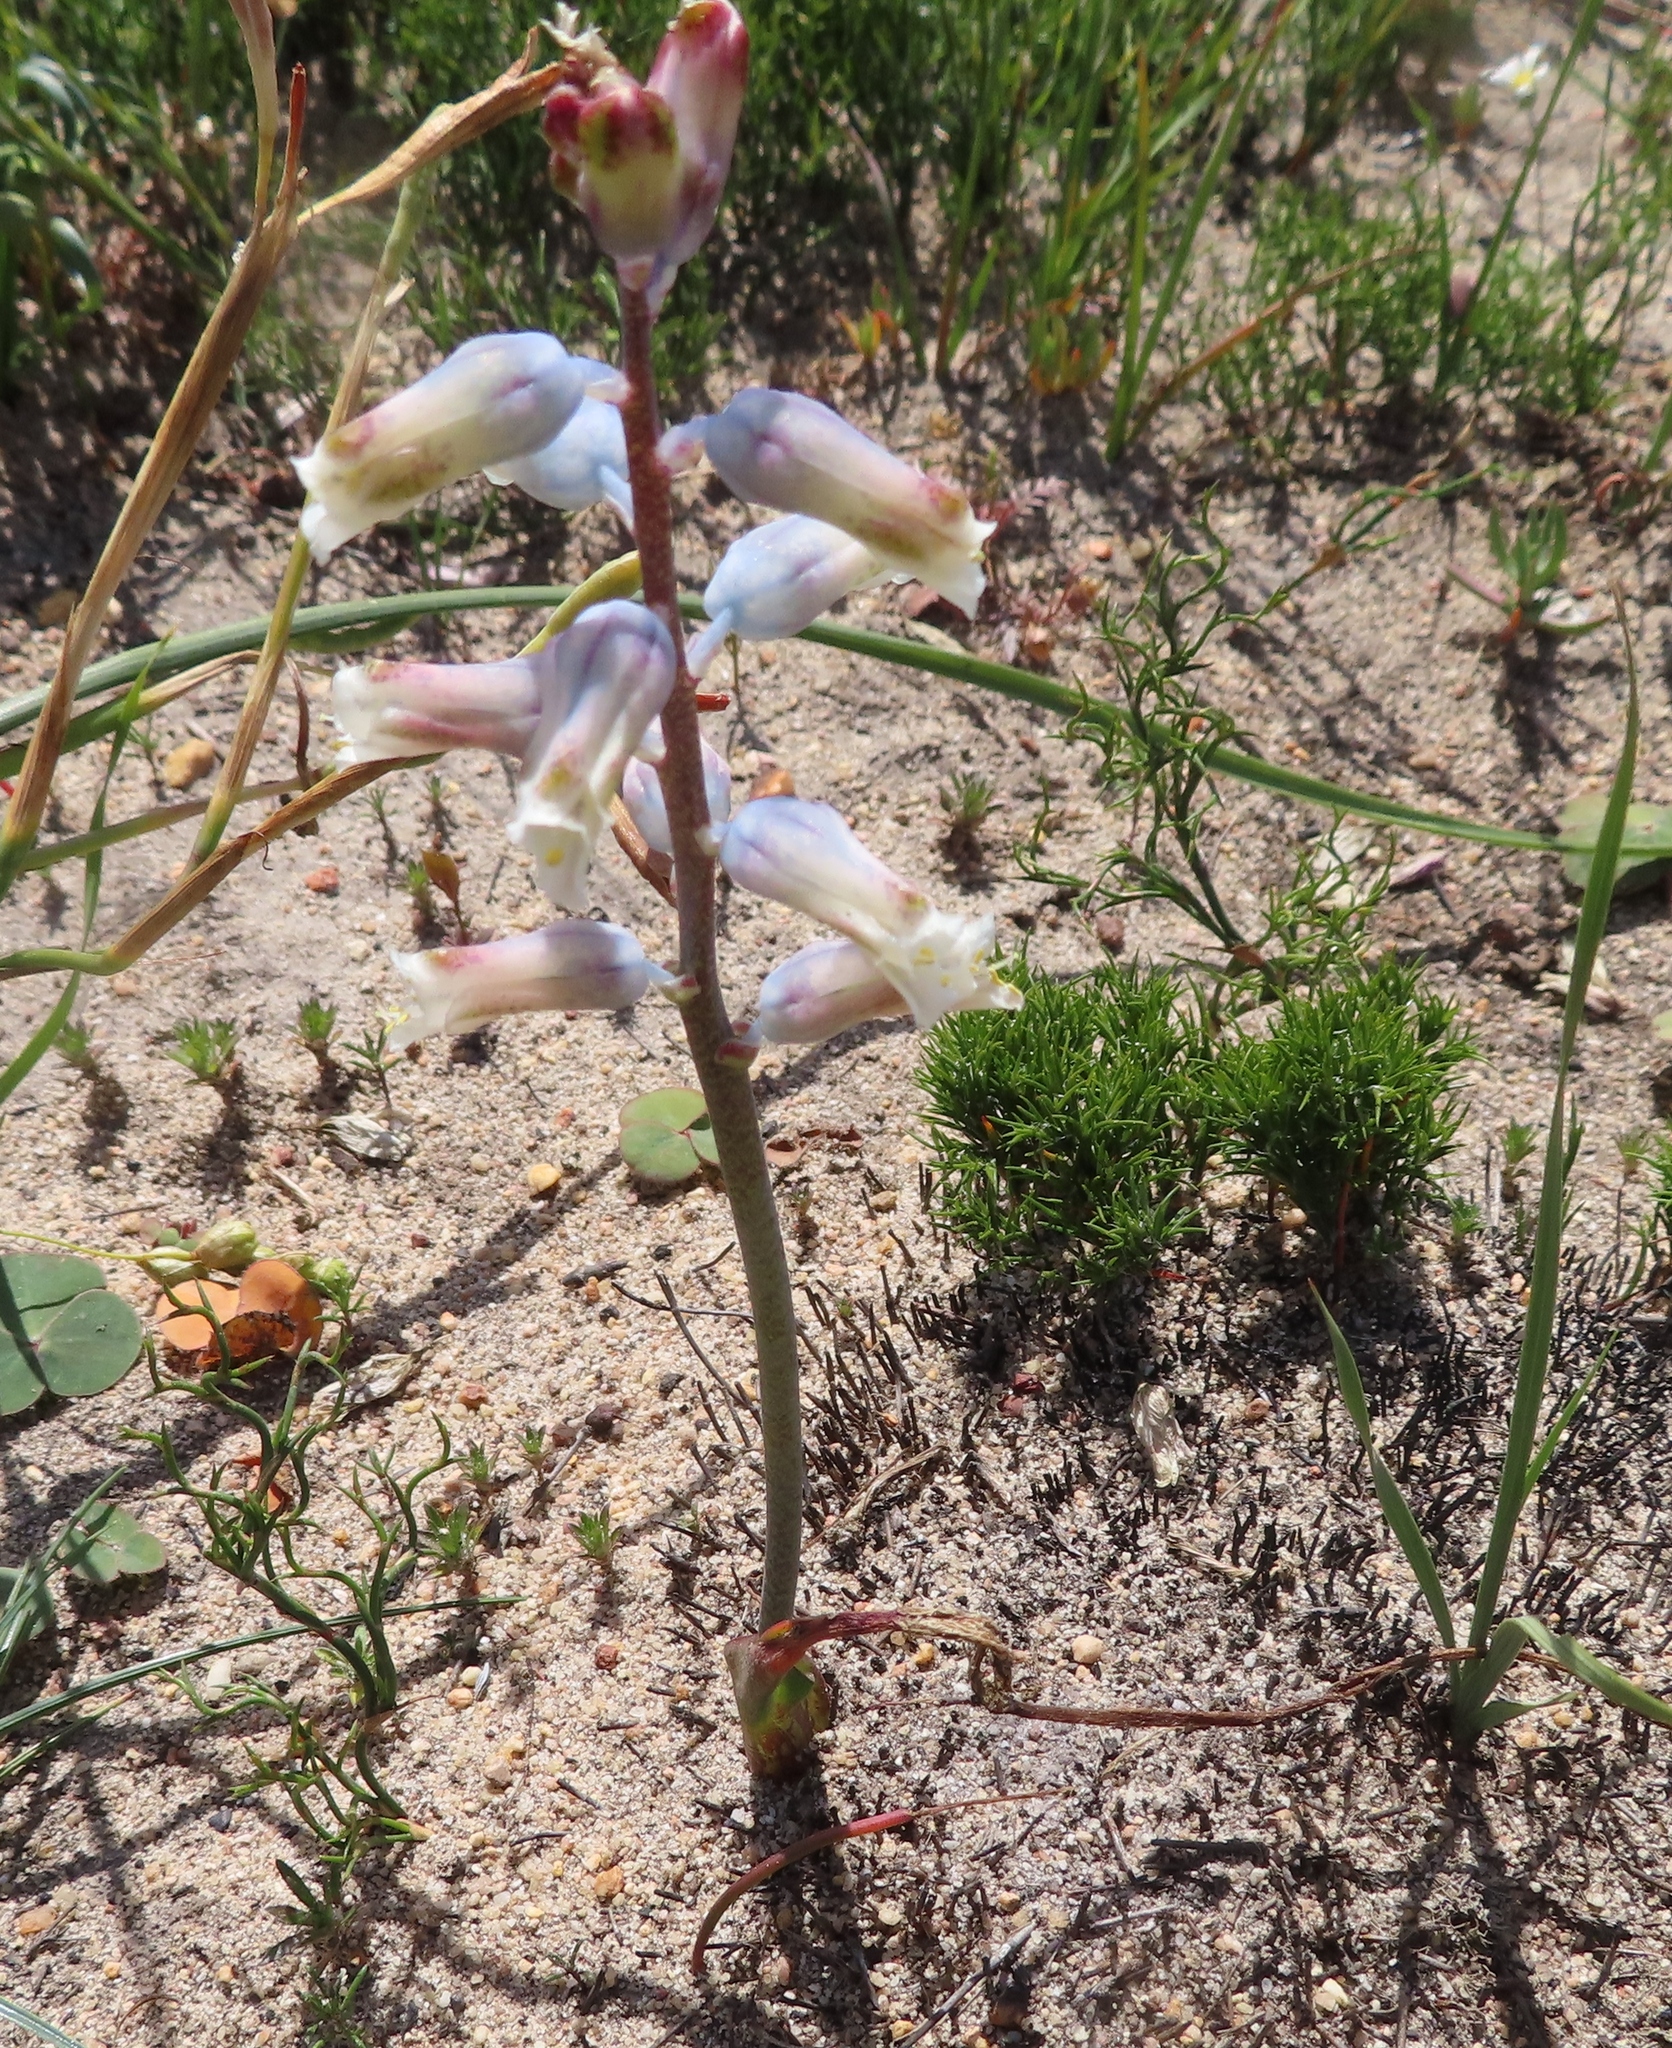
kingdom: Plantae
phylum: Tracheophyta
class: Liliopsida
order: Asparagales
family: Asparagaceae
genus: Lachenalia
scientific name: Lachenalia unifolia
